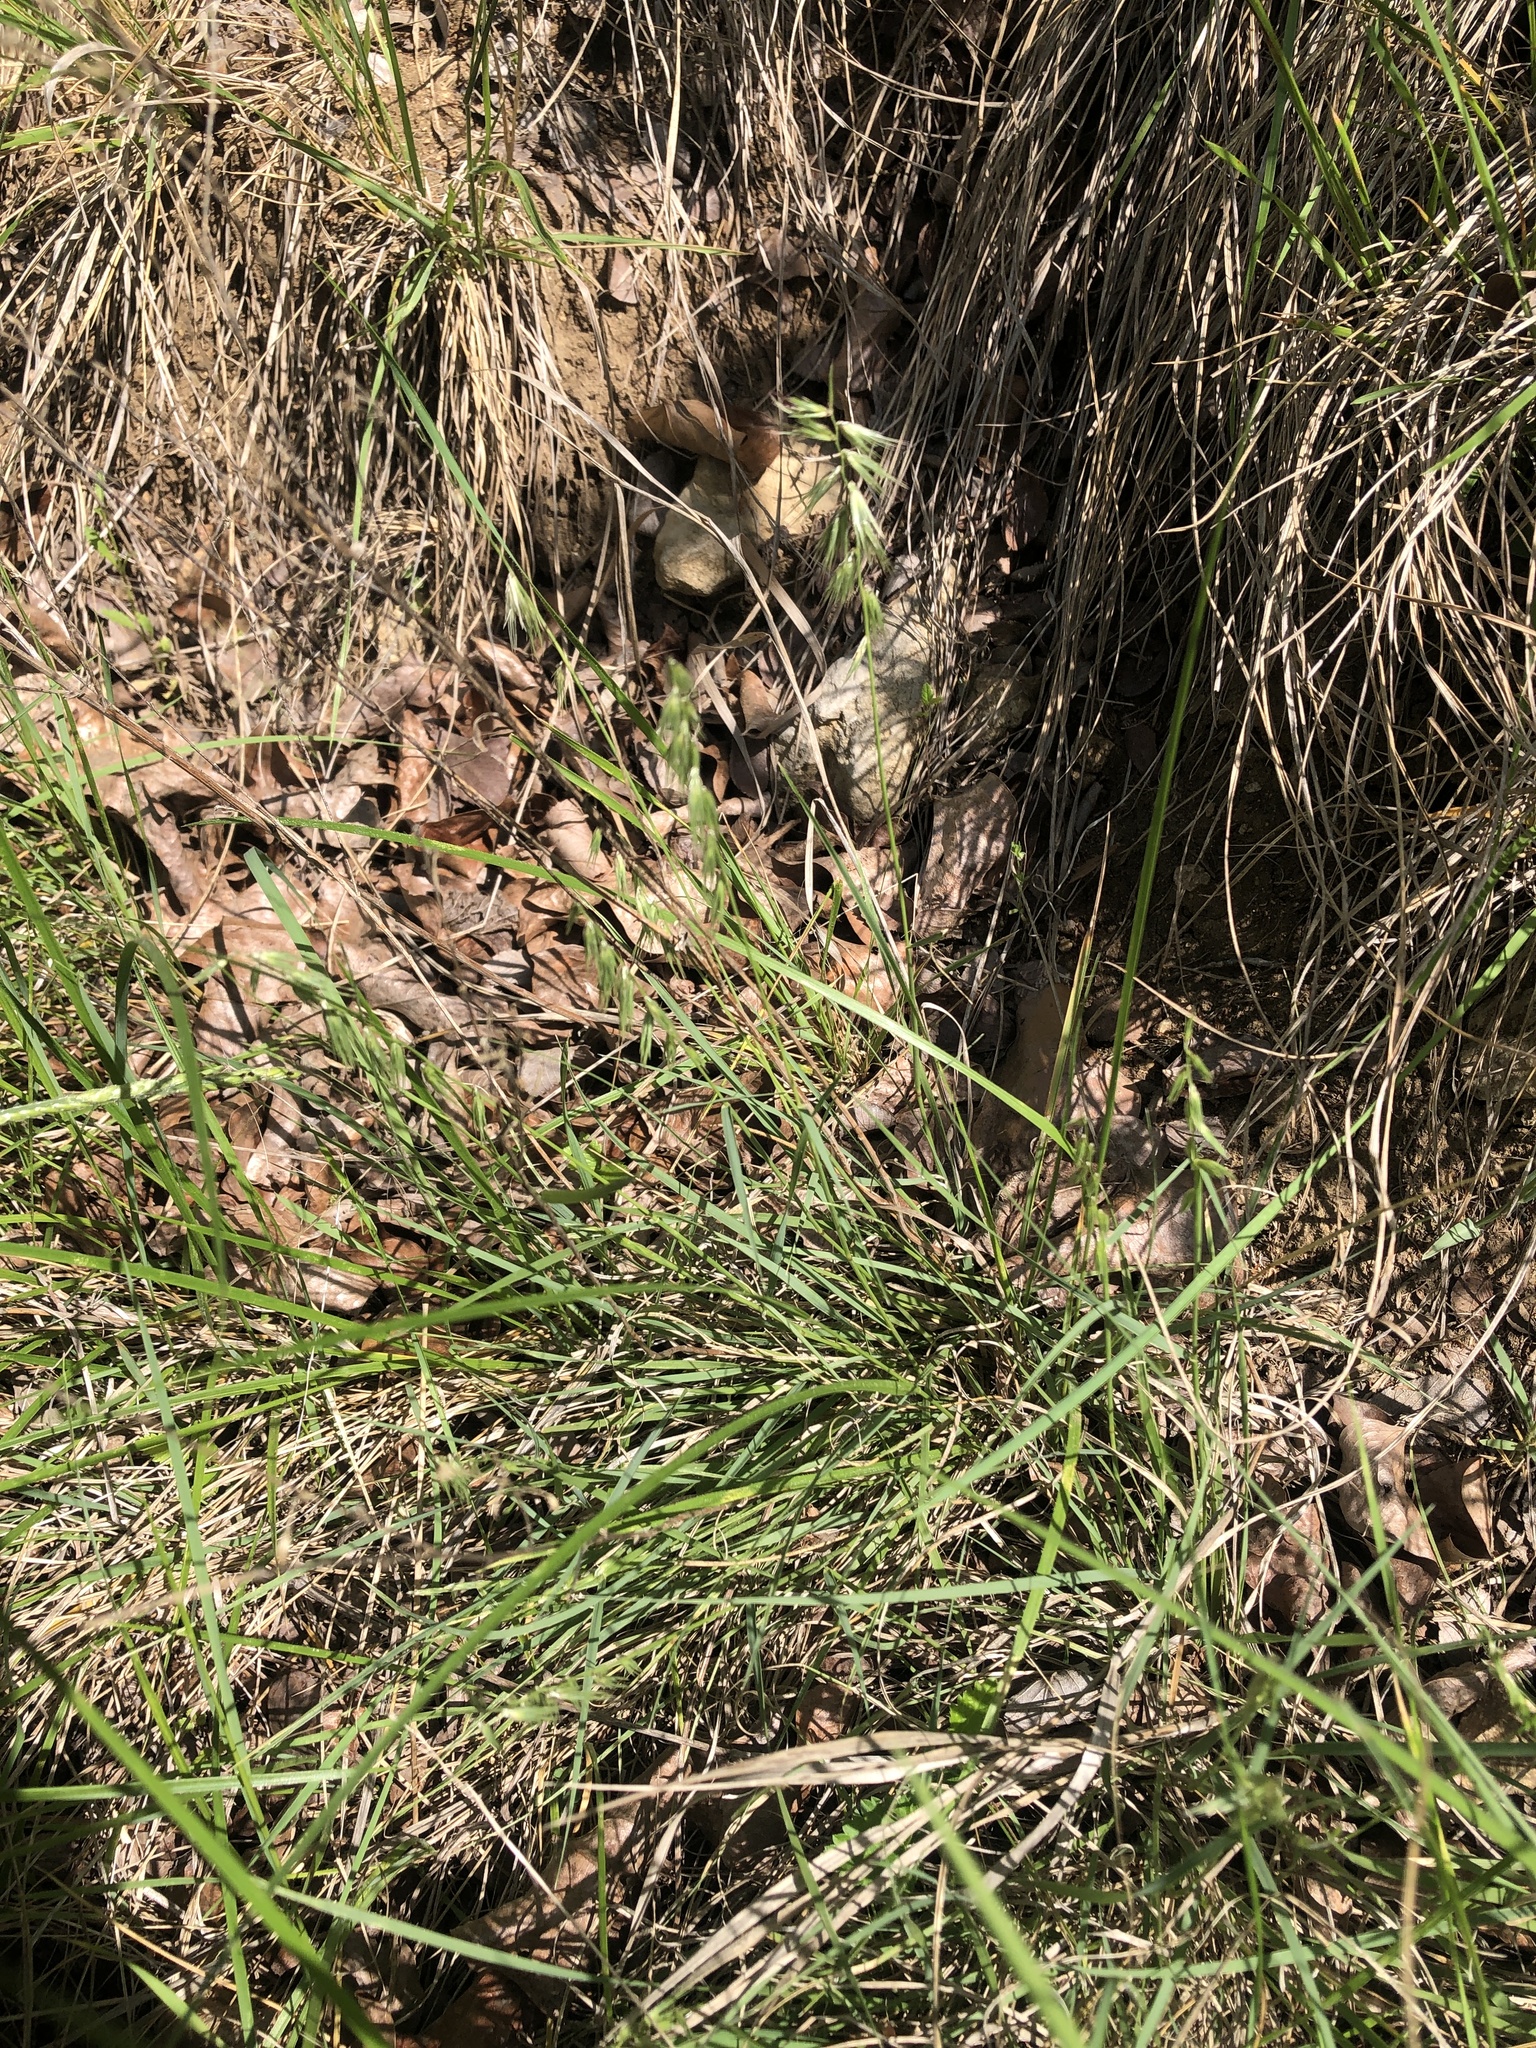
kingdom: Plantae
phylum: Tracheophyta
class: Liliopsida
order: Poales
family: Poaceae
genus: Bouteloua
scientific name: Bouteloua rigidiseta
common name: Texas grama
